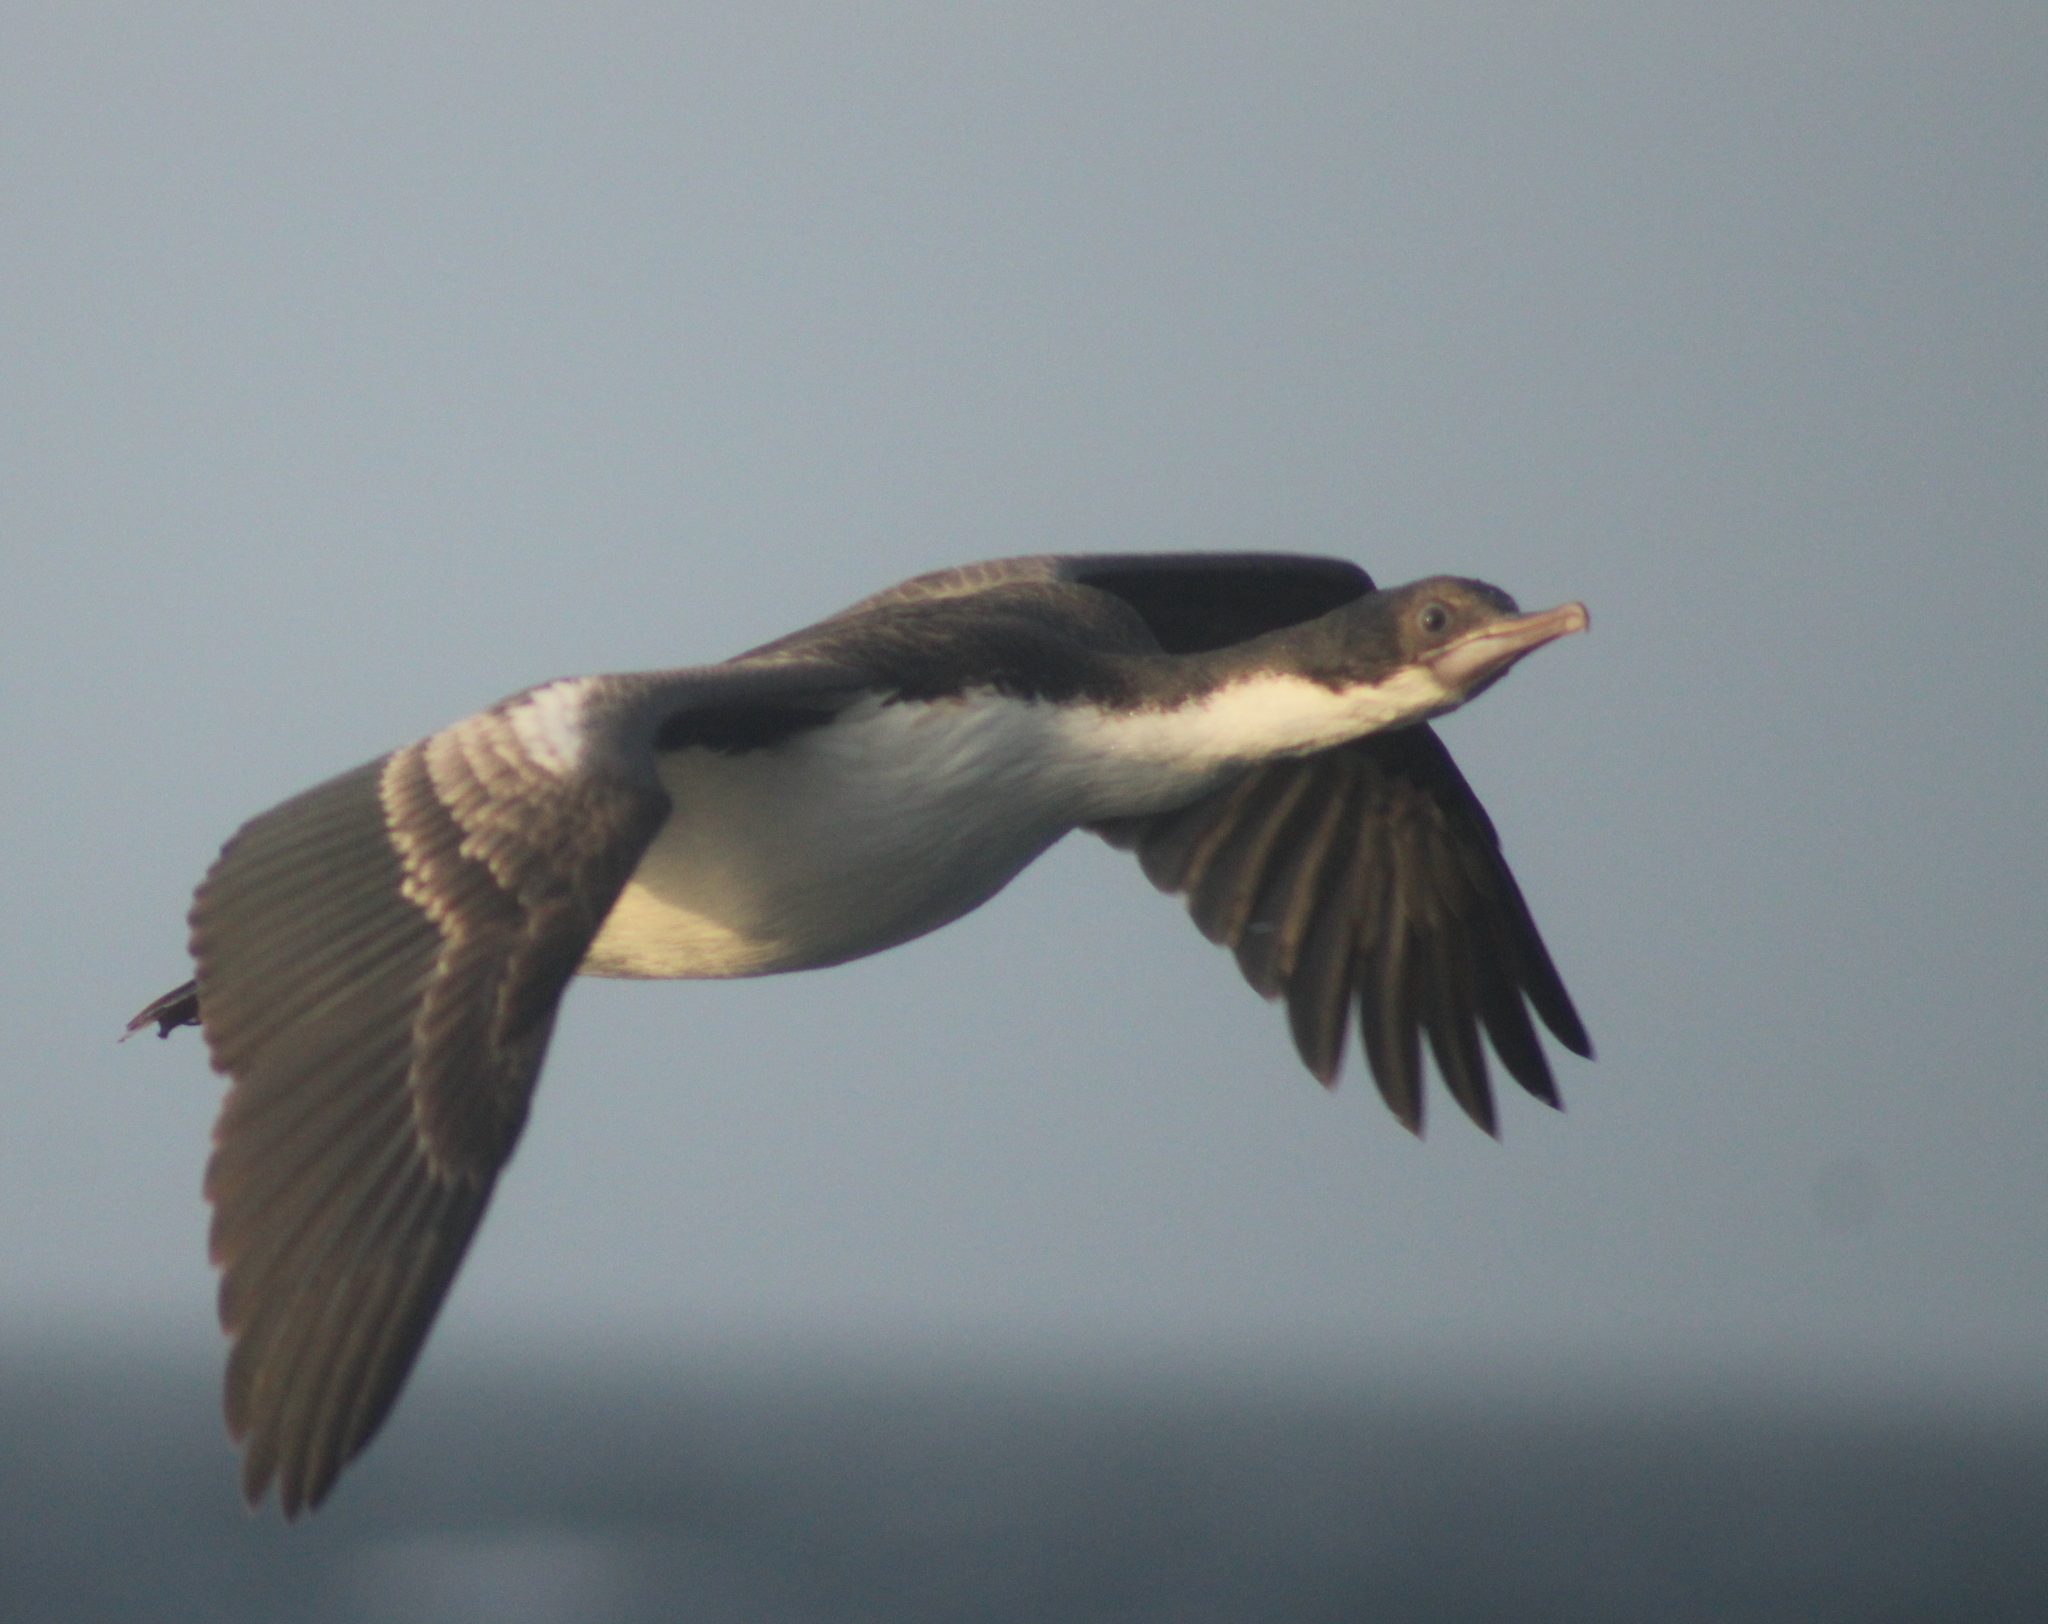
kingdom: Animalia
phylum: Chordata
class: Aves
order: Suliformes
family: Phalacrocoracidae
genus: Leucocarbo
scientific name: Leucocarbo atriceps
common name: Imperial shag
